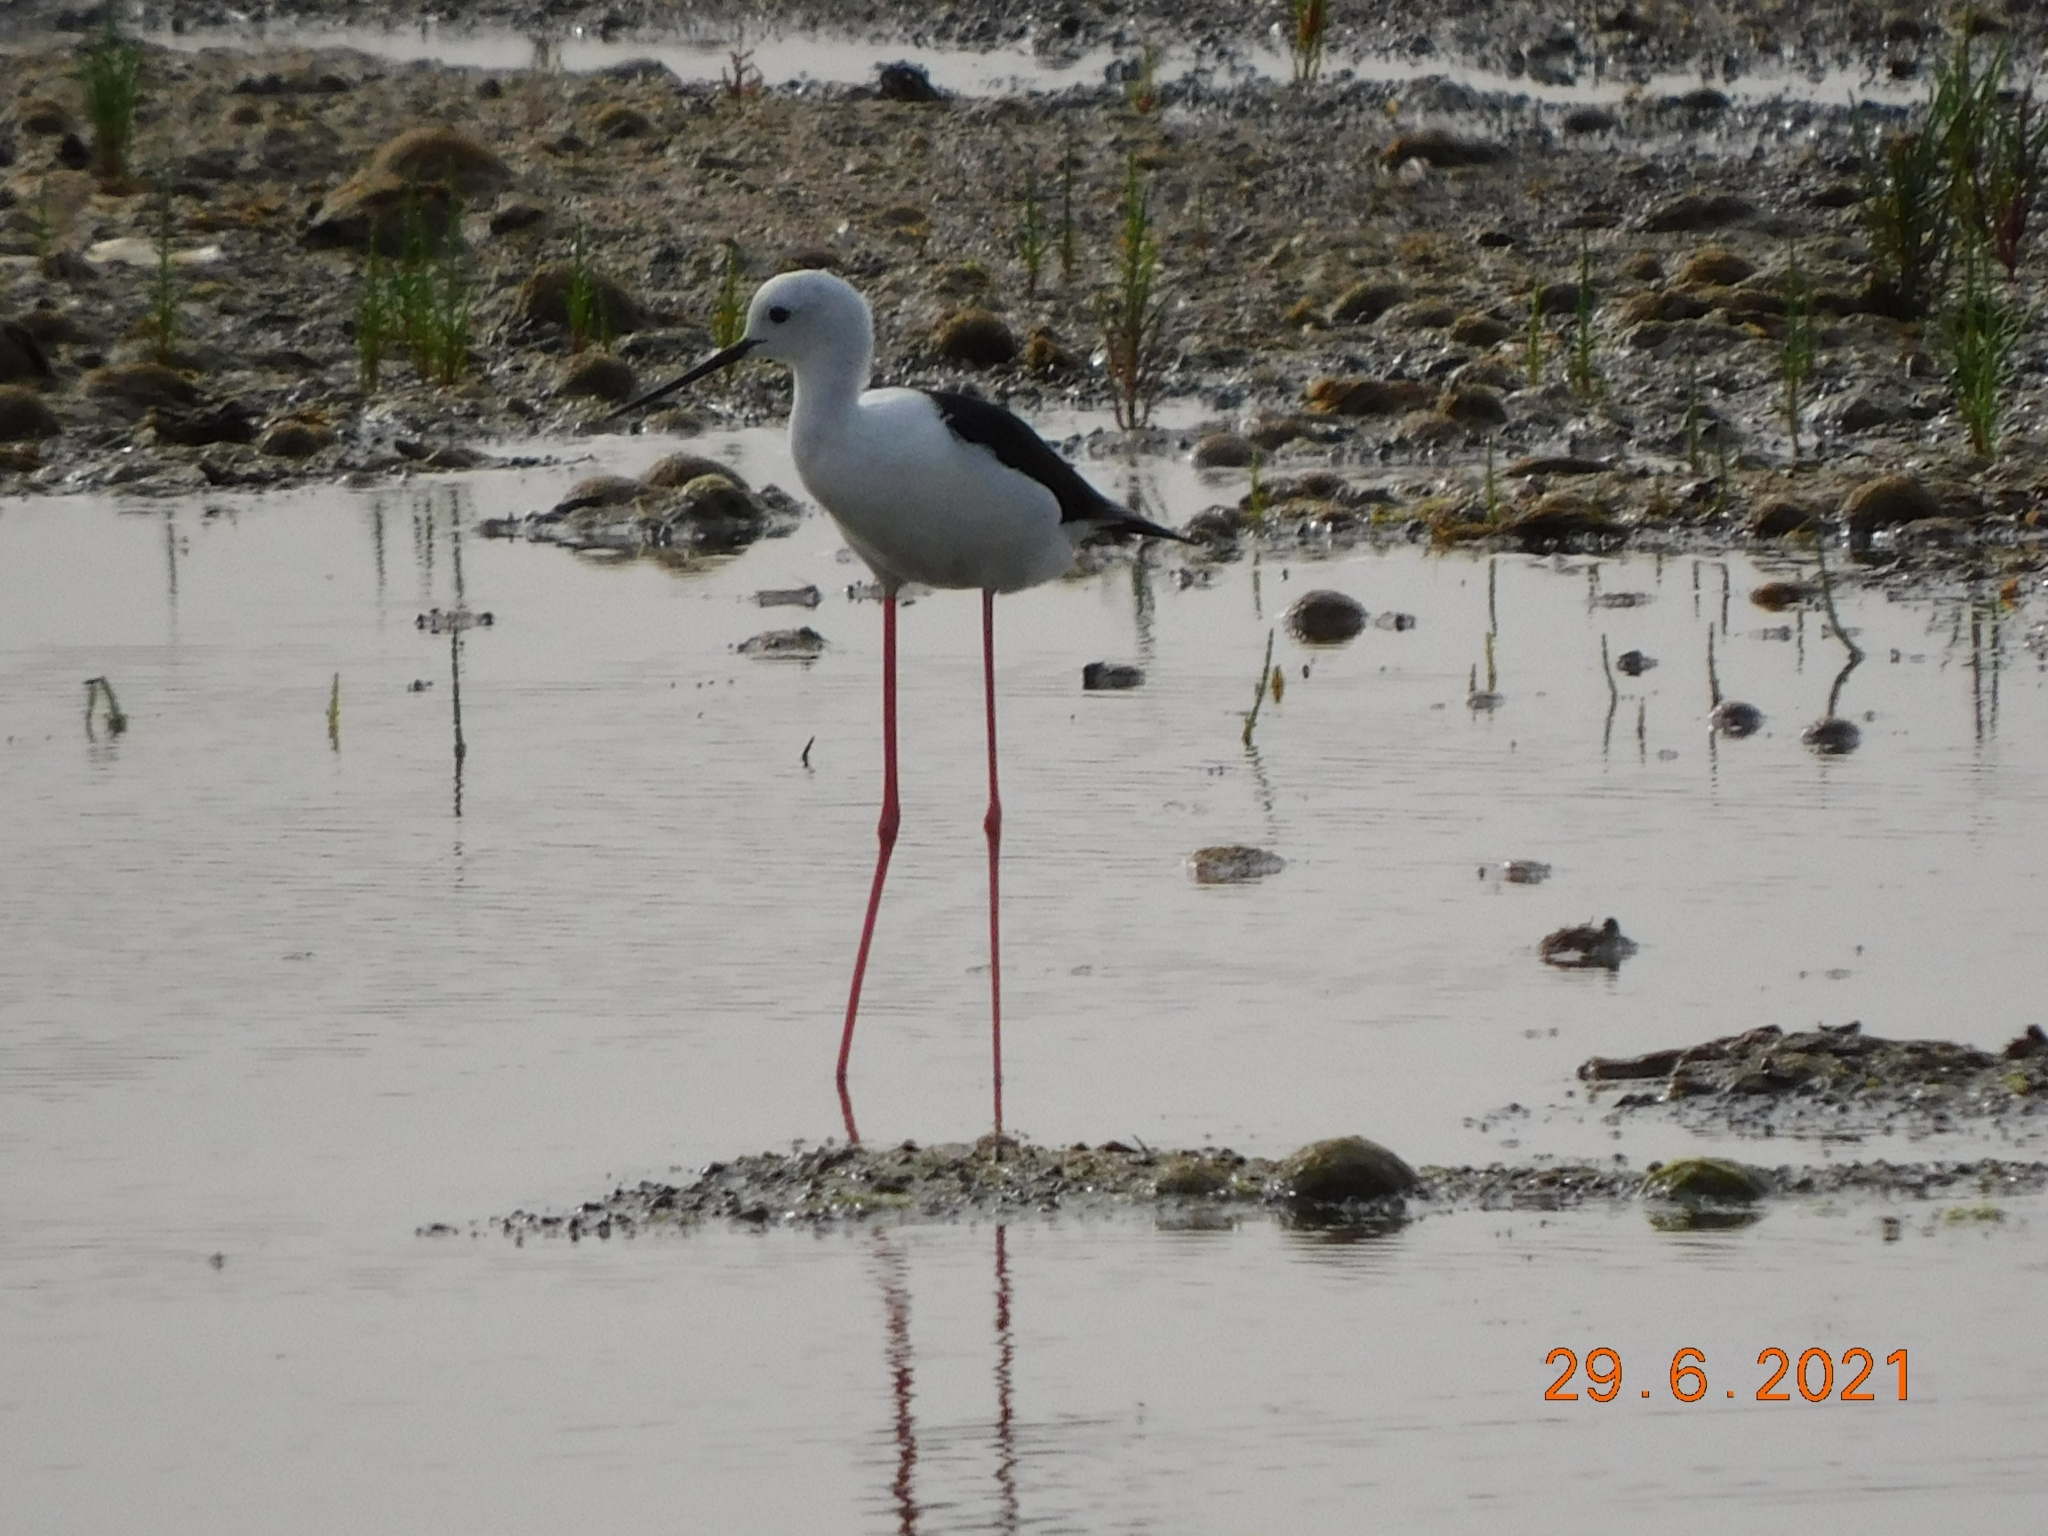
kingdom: Animalia
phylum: Chordata
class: Aves
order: Charadriiformes
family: Recurvirostridae
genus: Himantopus
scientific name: Himantopus himantopus
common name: Black-winged stilt
